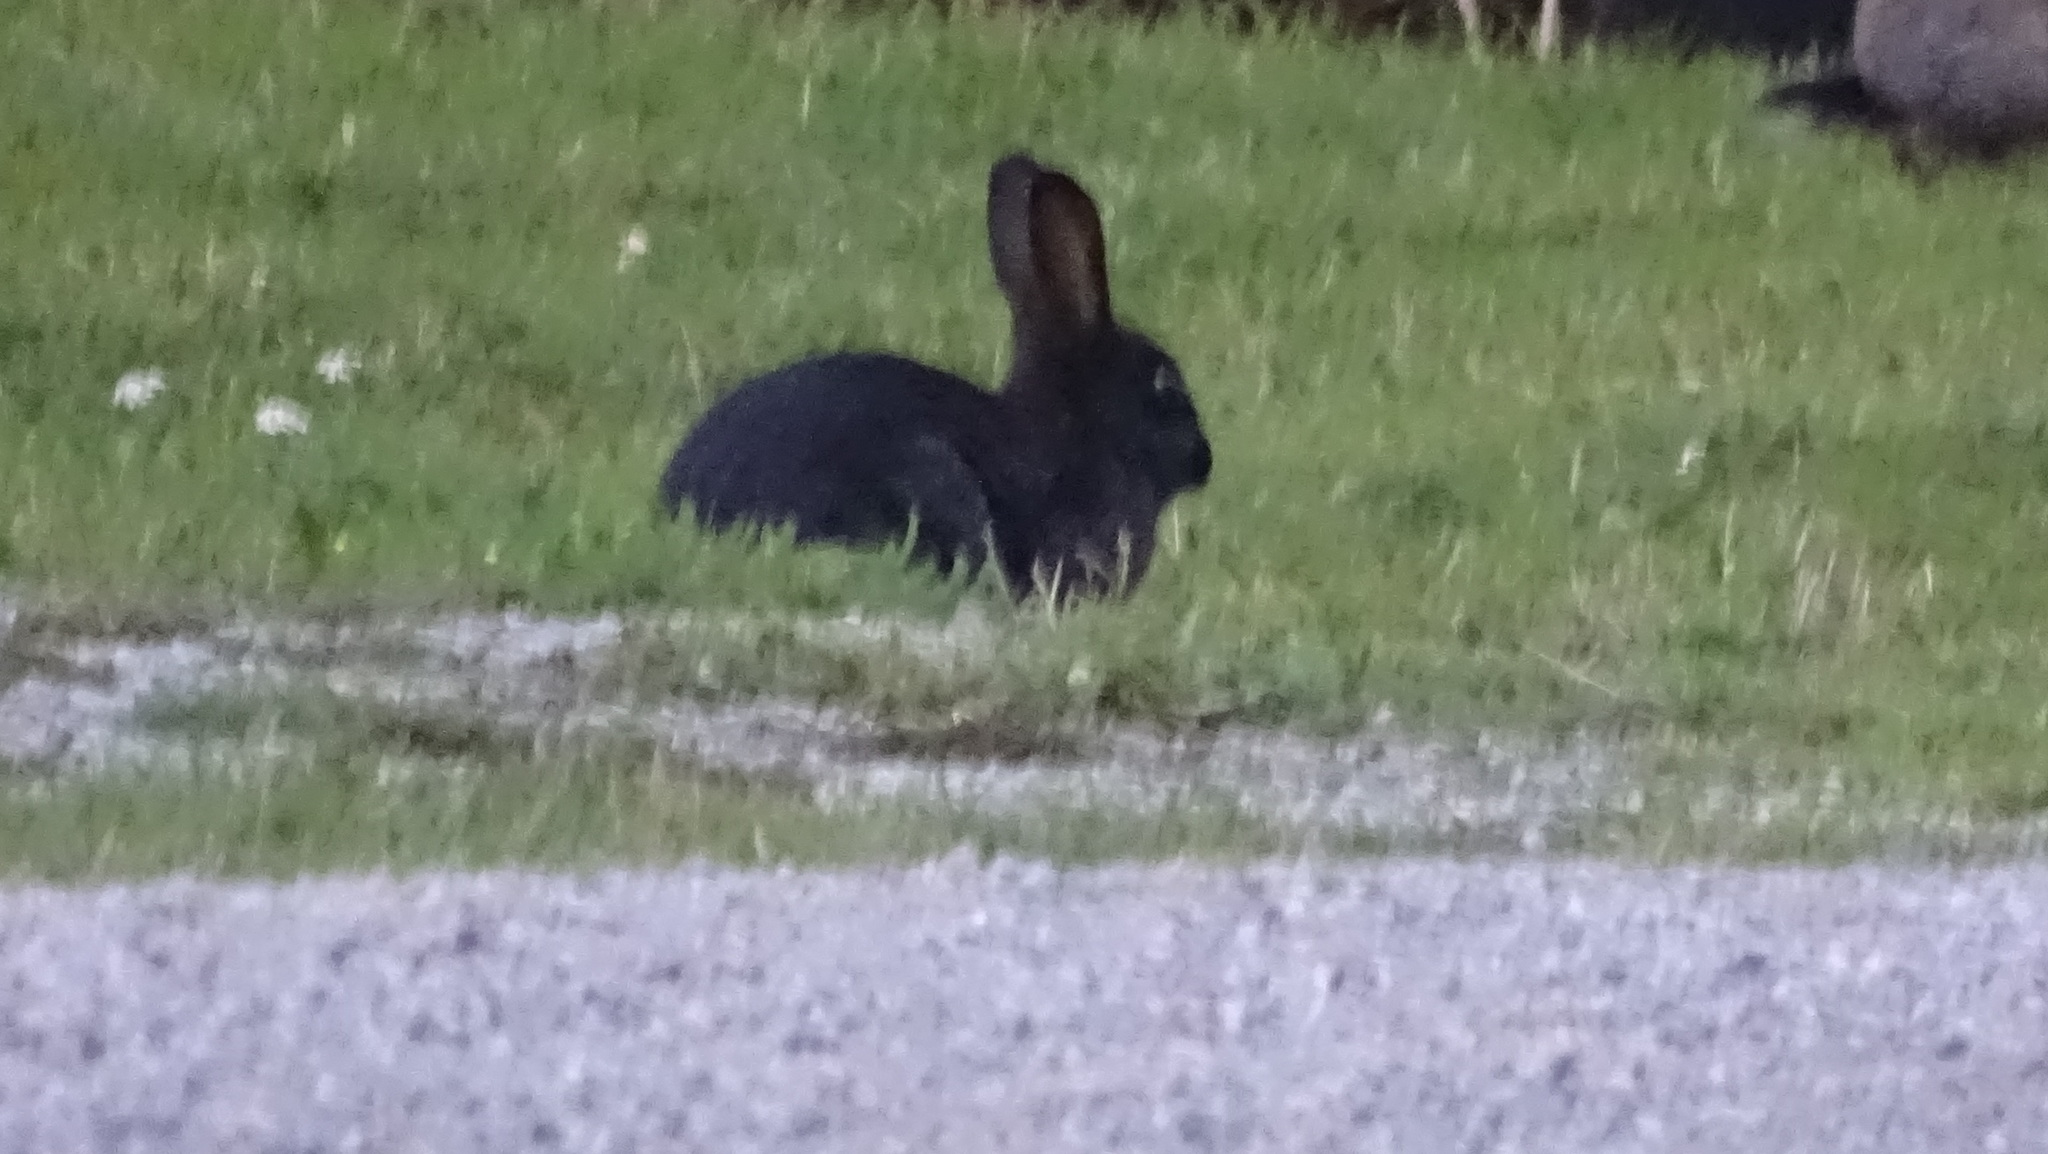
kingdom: Animalia
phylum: Chordata
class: Mammalia
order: Lagomorpha
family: Leporidae
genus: Oryctolagus
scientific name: Oryctolagus cuniculus
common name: European rabbit
